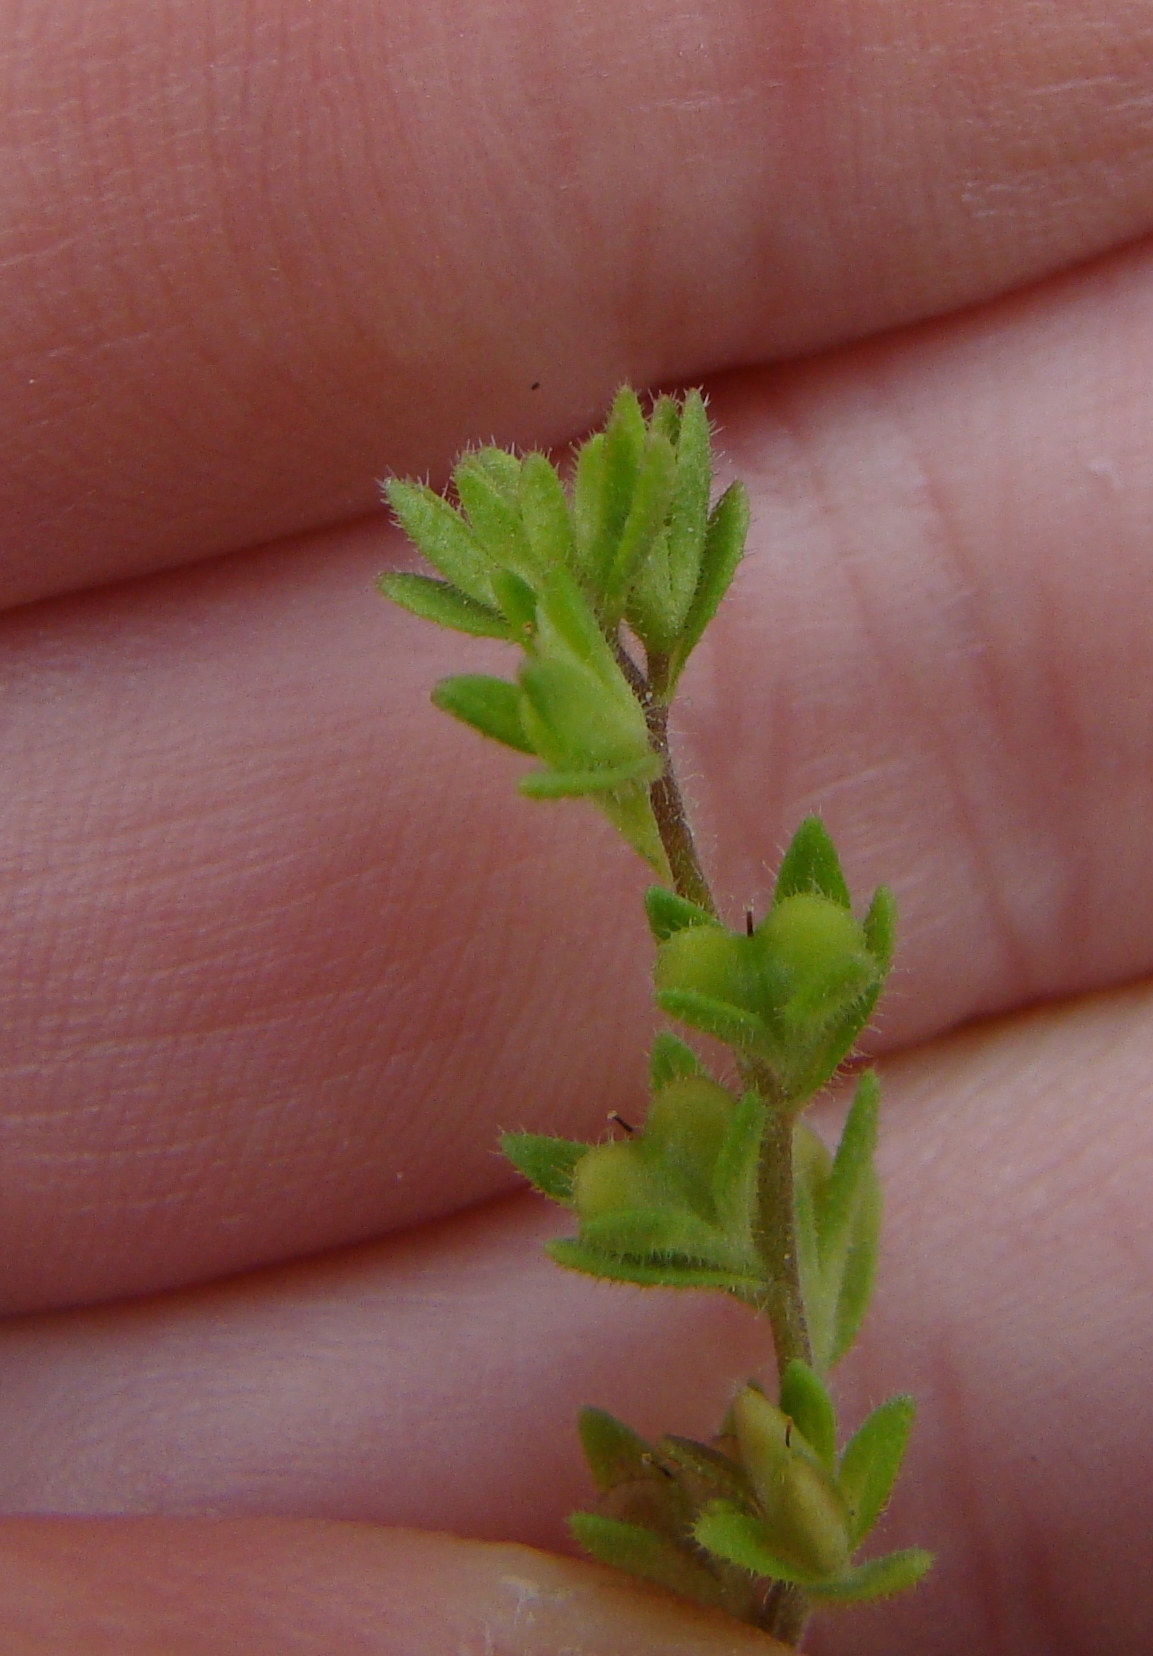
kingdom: Plantae
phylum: Tracheophyta
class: Magnoliopsida
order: Lamiales
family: Plantaginaceae
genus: Veronica
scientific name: Veronica arvensis
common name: Corn speedwell
